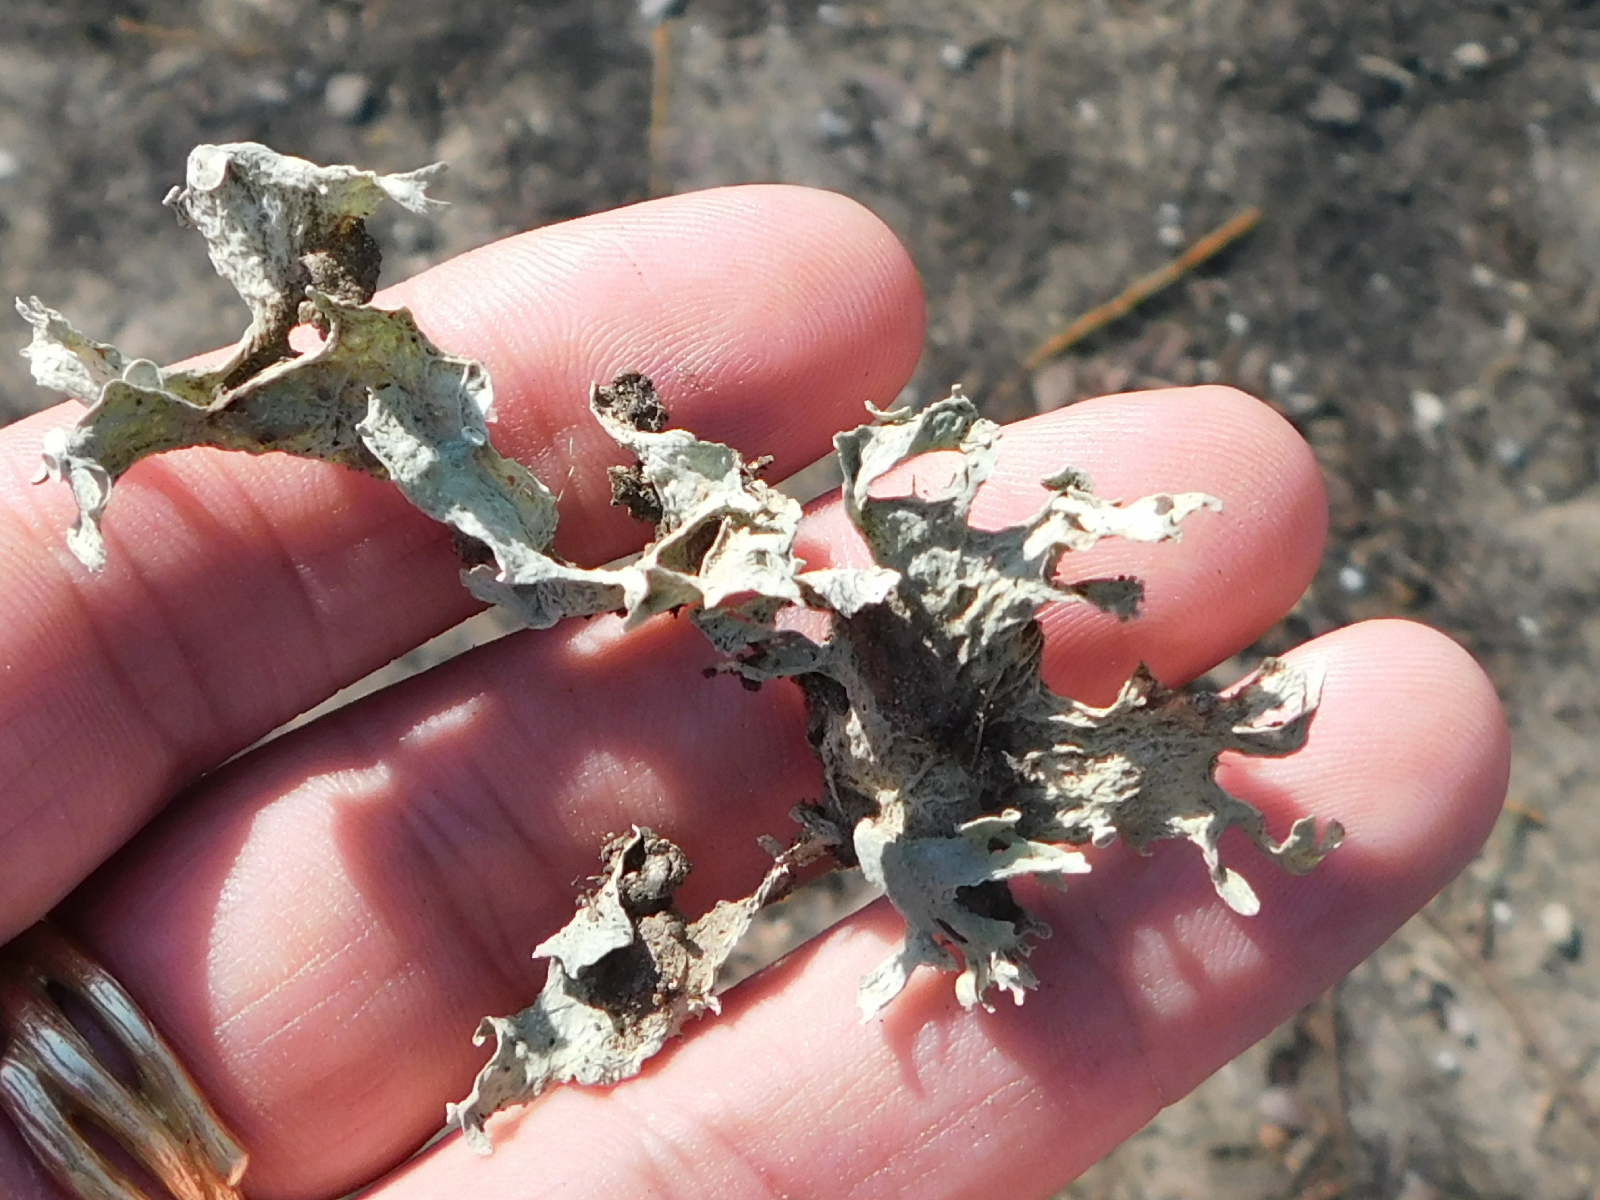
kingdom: Fungi
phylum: Ascomycota
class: Lecanoromycetes
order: Lecanorales
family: Ramalinaceae
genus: Ramalina
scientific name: Ramalina complanata
